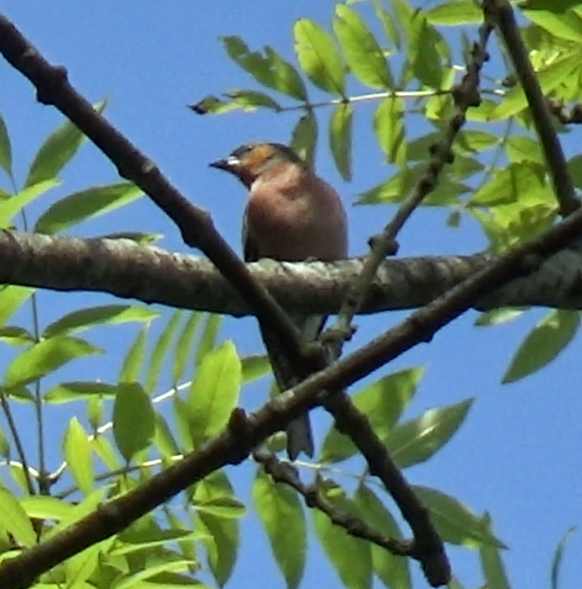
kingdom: Animalia
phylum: Chordata
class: Aves
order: Passeriformes
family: Fringillidae
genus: Fringilla
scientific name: Fringilla coelebs
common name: Common chaffinch
